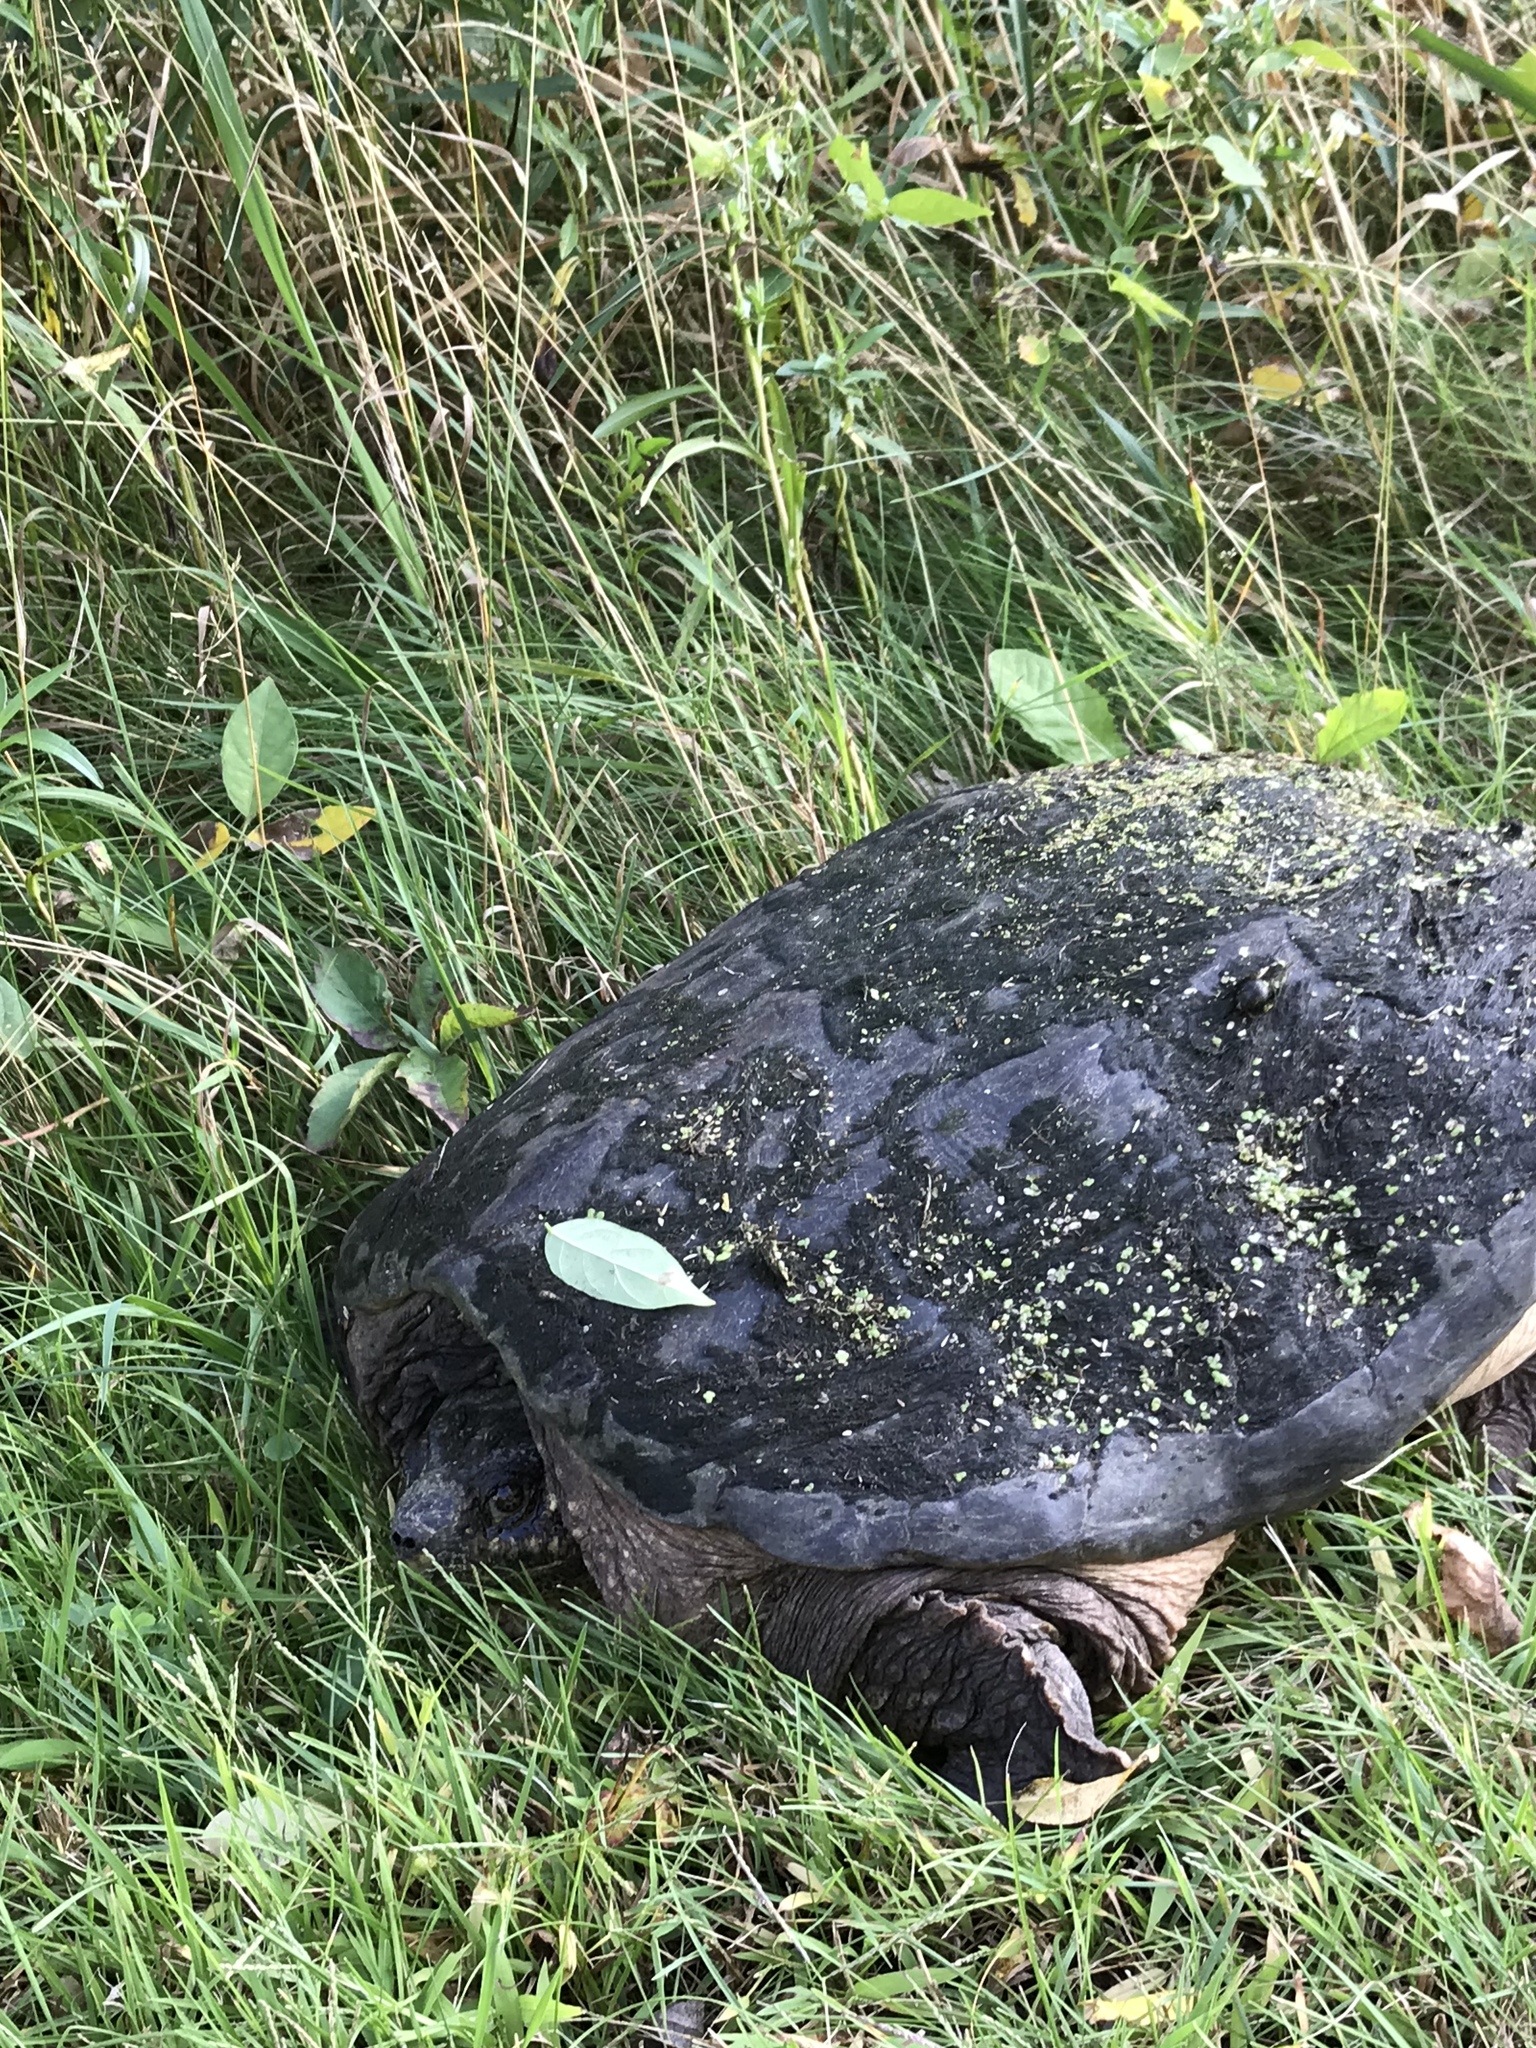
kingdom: Animalia
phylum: Chordata
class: Testudines
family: Chelydridae
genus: Chelydra
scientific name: Chelydra serpentina
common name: Common snapping turtle
